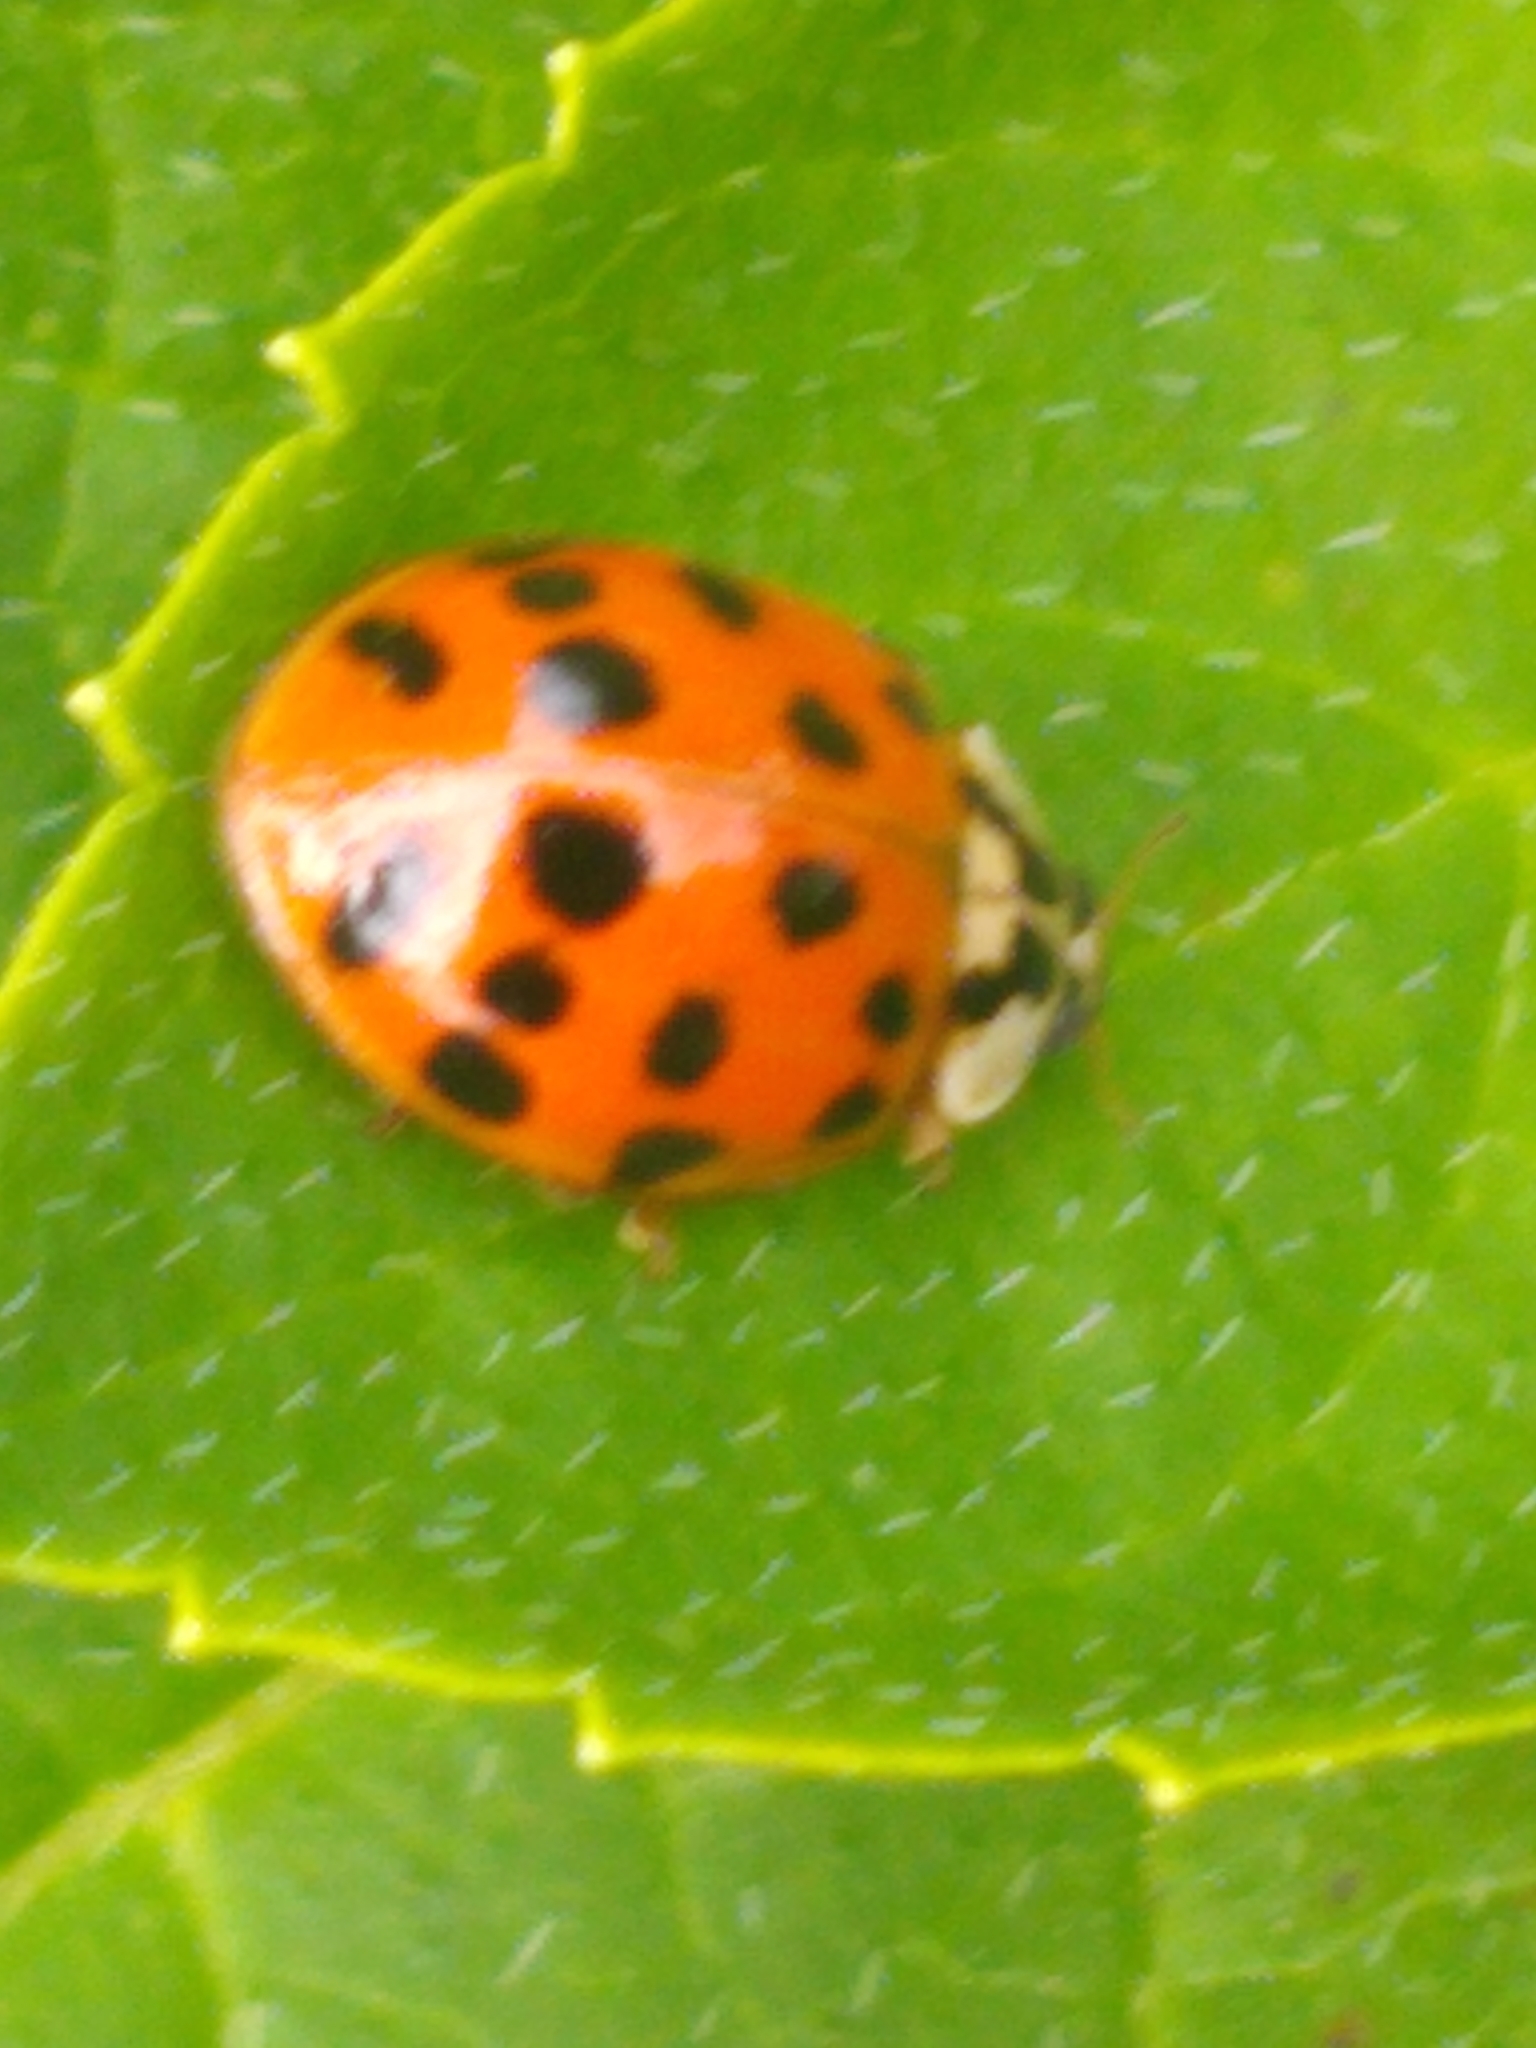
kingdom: Animalia
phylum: Arthropoda
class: Insecta
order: Coleoptera
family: Coccinellidae
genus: Harmonia
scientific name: Harmonia axyridis
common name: Harlequin ladybird
